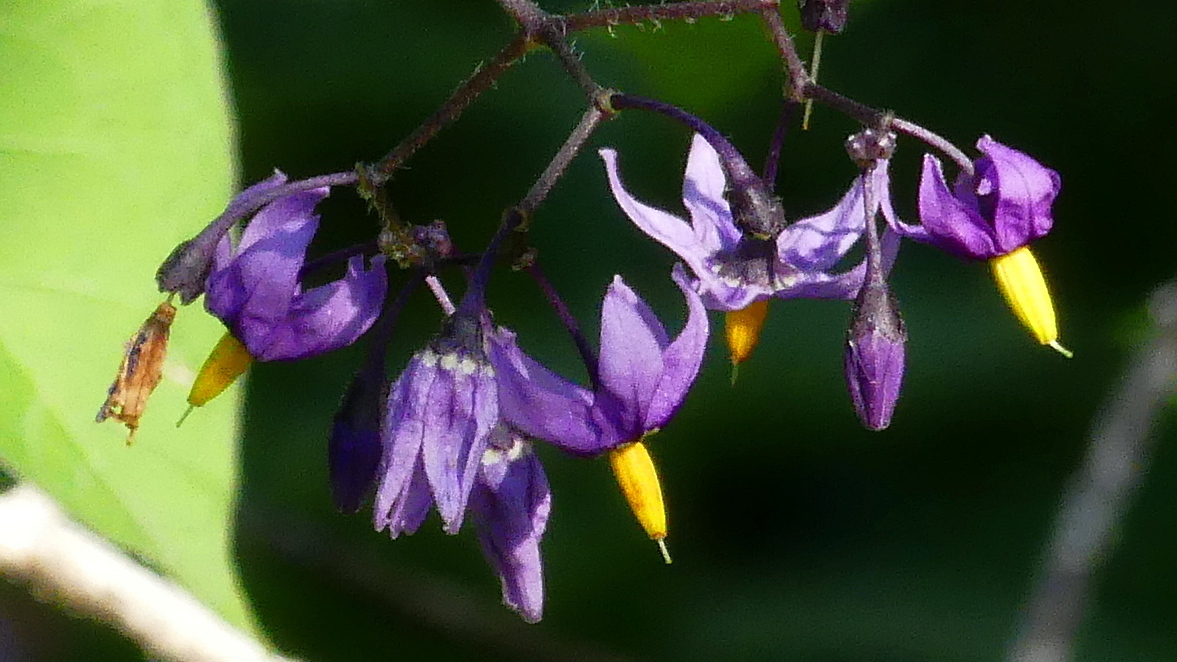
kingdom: Plantae
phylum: Tracheophyta
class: Magnoliopsida
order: Solanales
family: Solanaceae
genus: Solanum
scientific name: Solanum dulcamara
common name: Climbing nightshade
